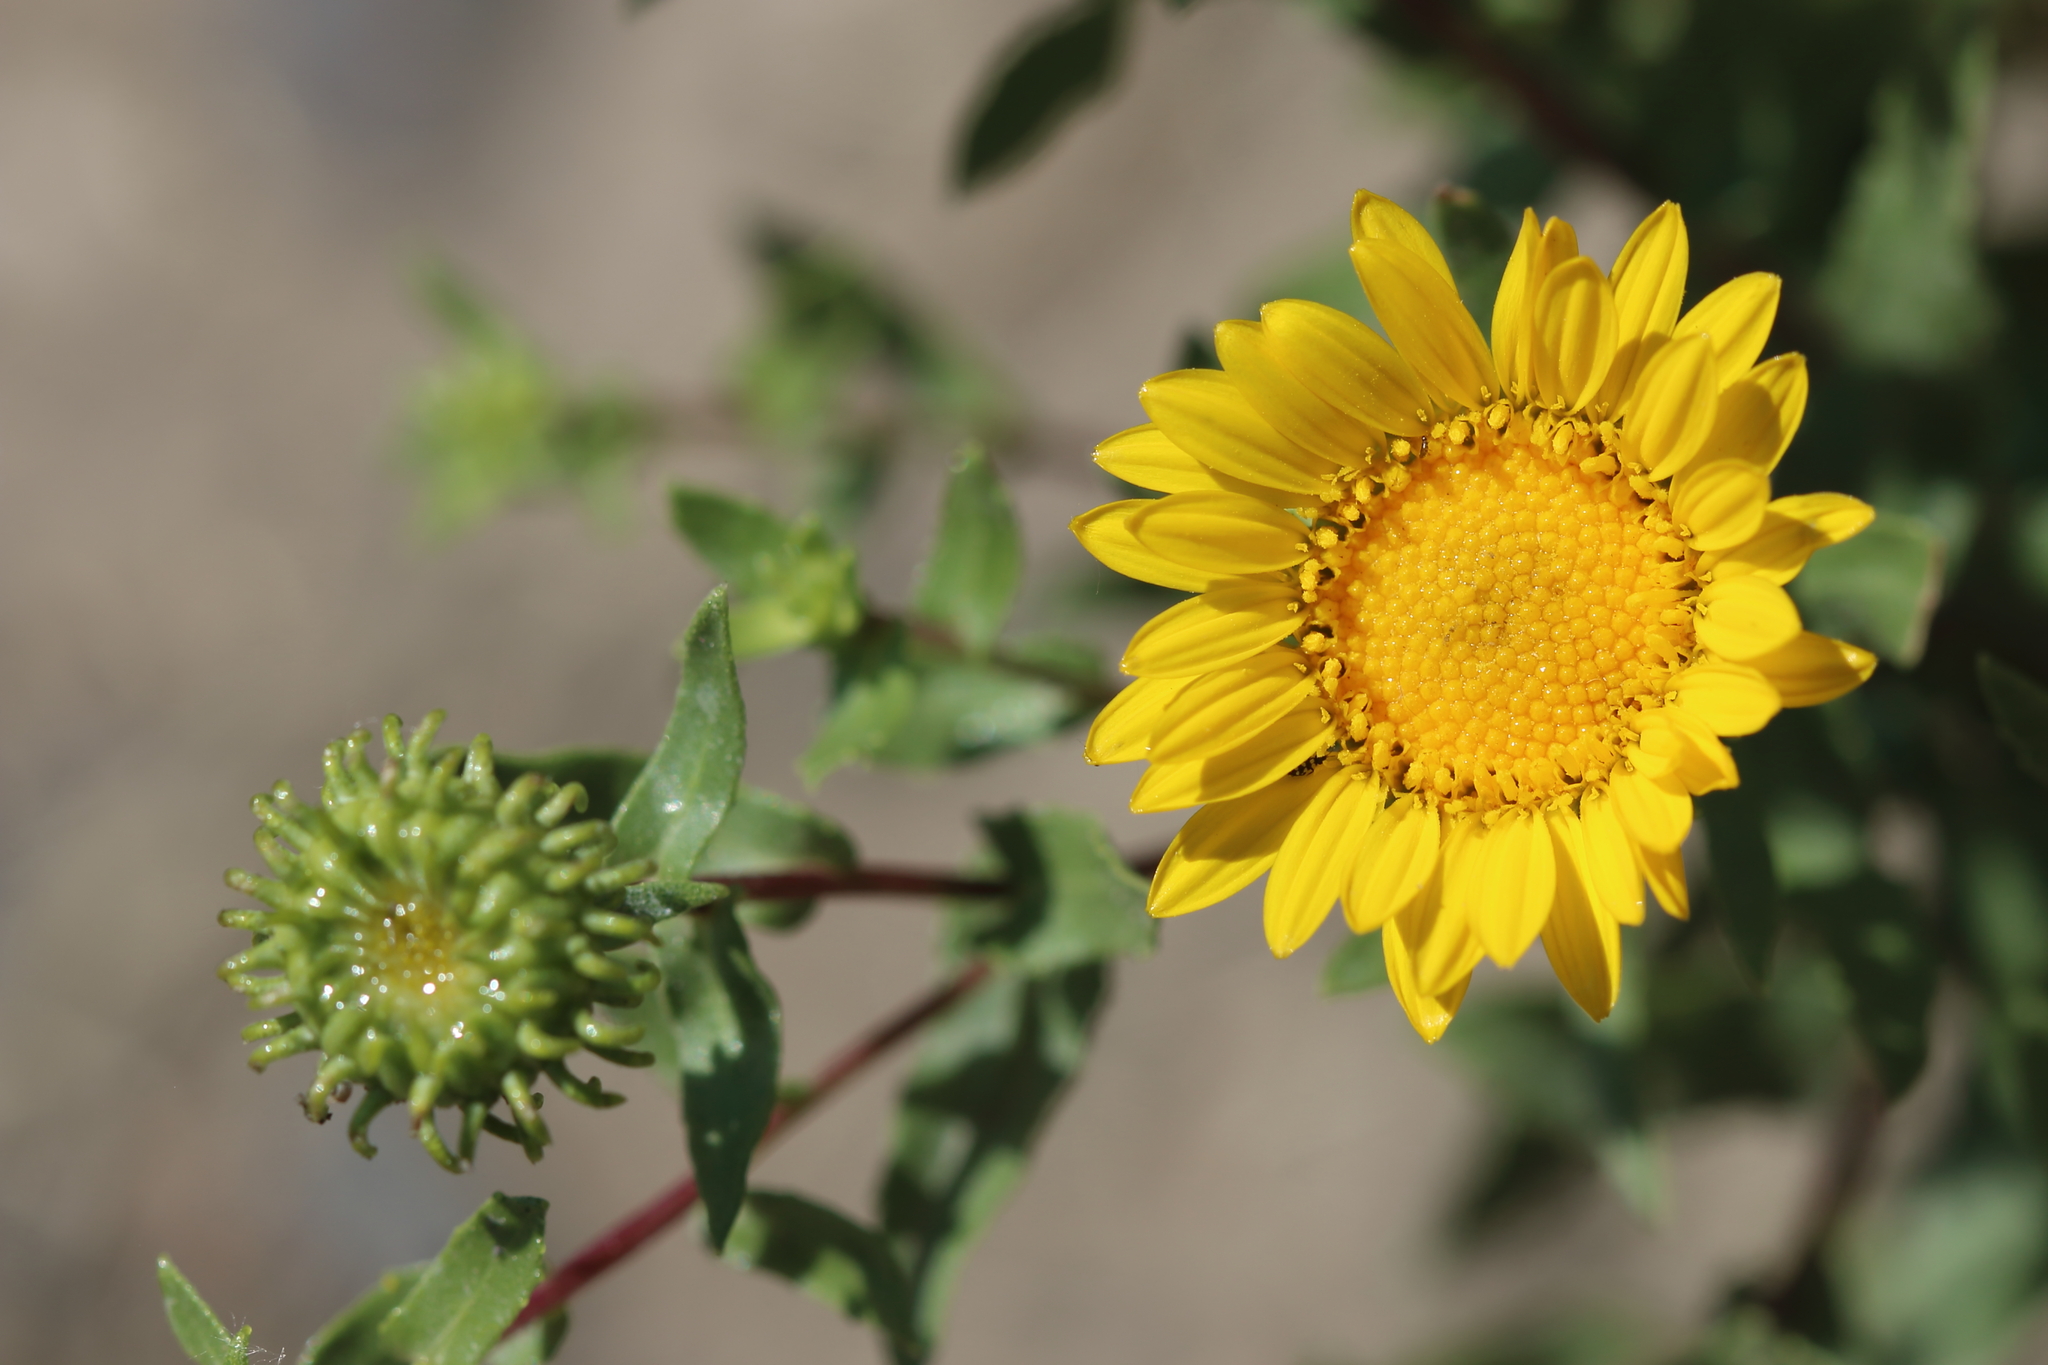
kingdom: Plantae
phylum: Tracheophyta
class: Magnoliopsida
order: Asterales
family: Asteraceae
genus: Grindelia
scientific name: Grindelia squarrosa
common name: Curly-cup gumweed
